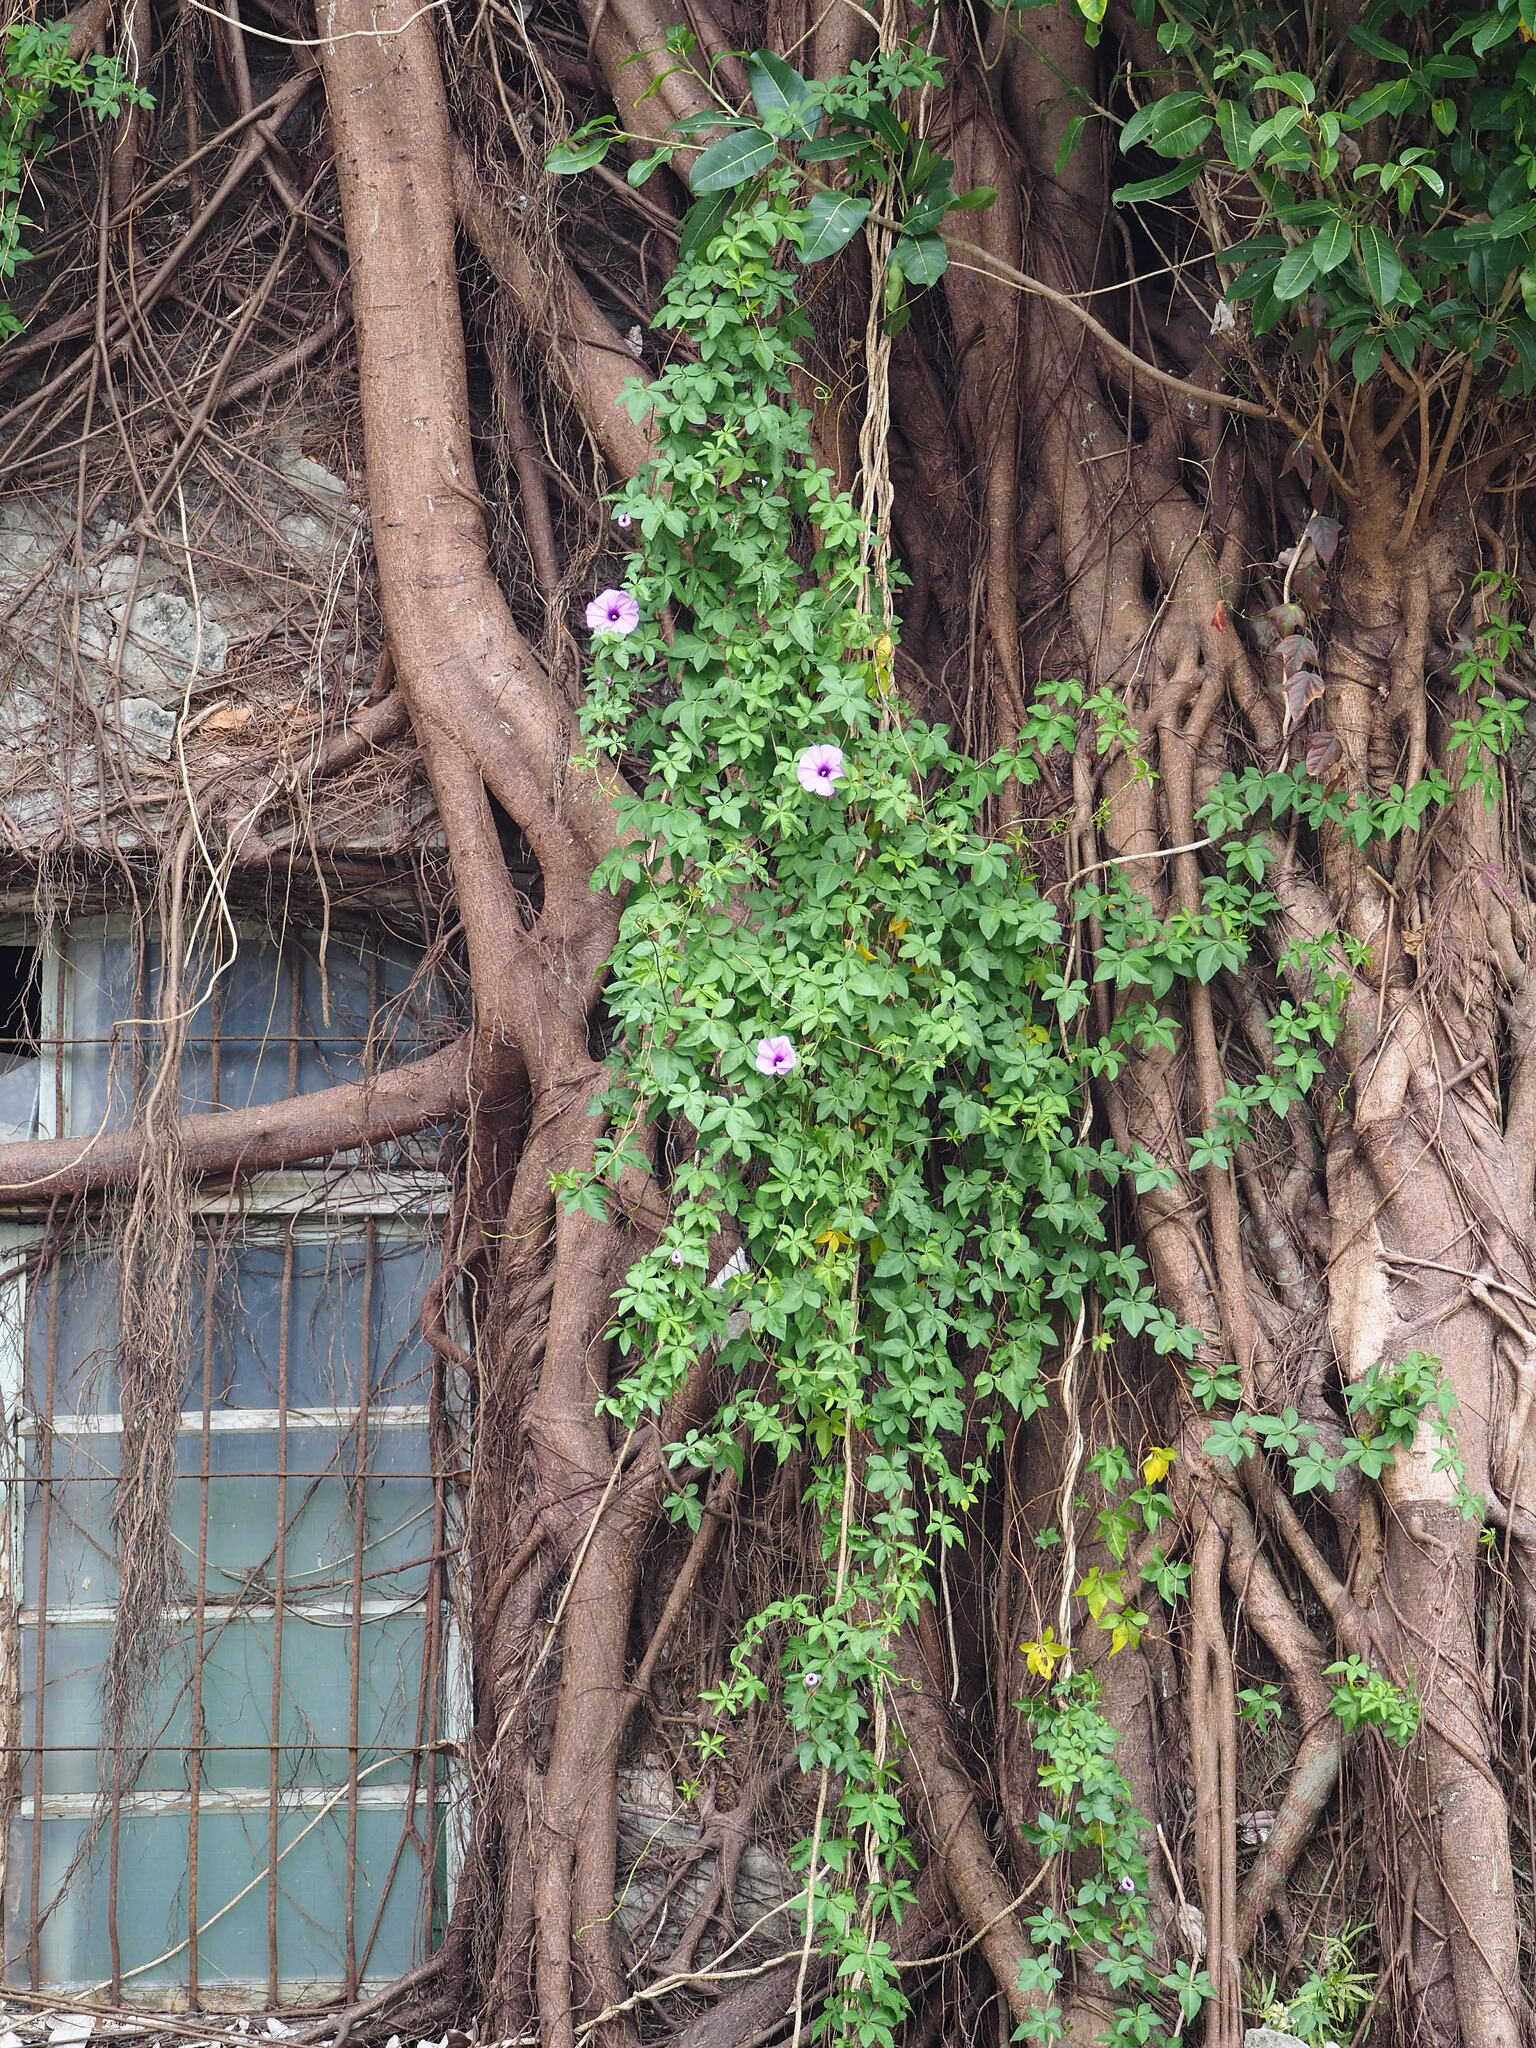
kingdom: Plantae
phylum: Tracheophyta
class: Magnoliopsida
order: Solanales
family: Convolvulaceae
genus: Ipomoea
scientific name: Ipomoea cairica
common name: Mile a minute vine
